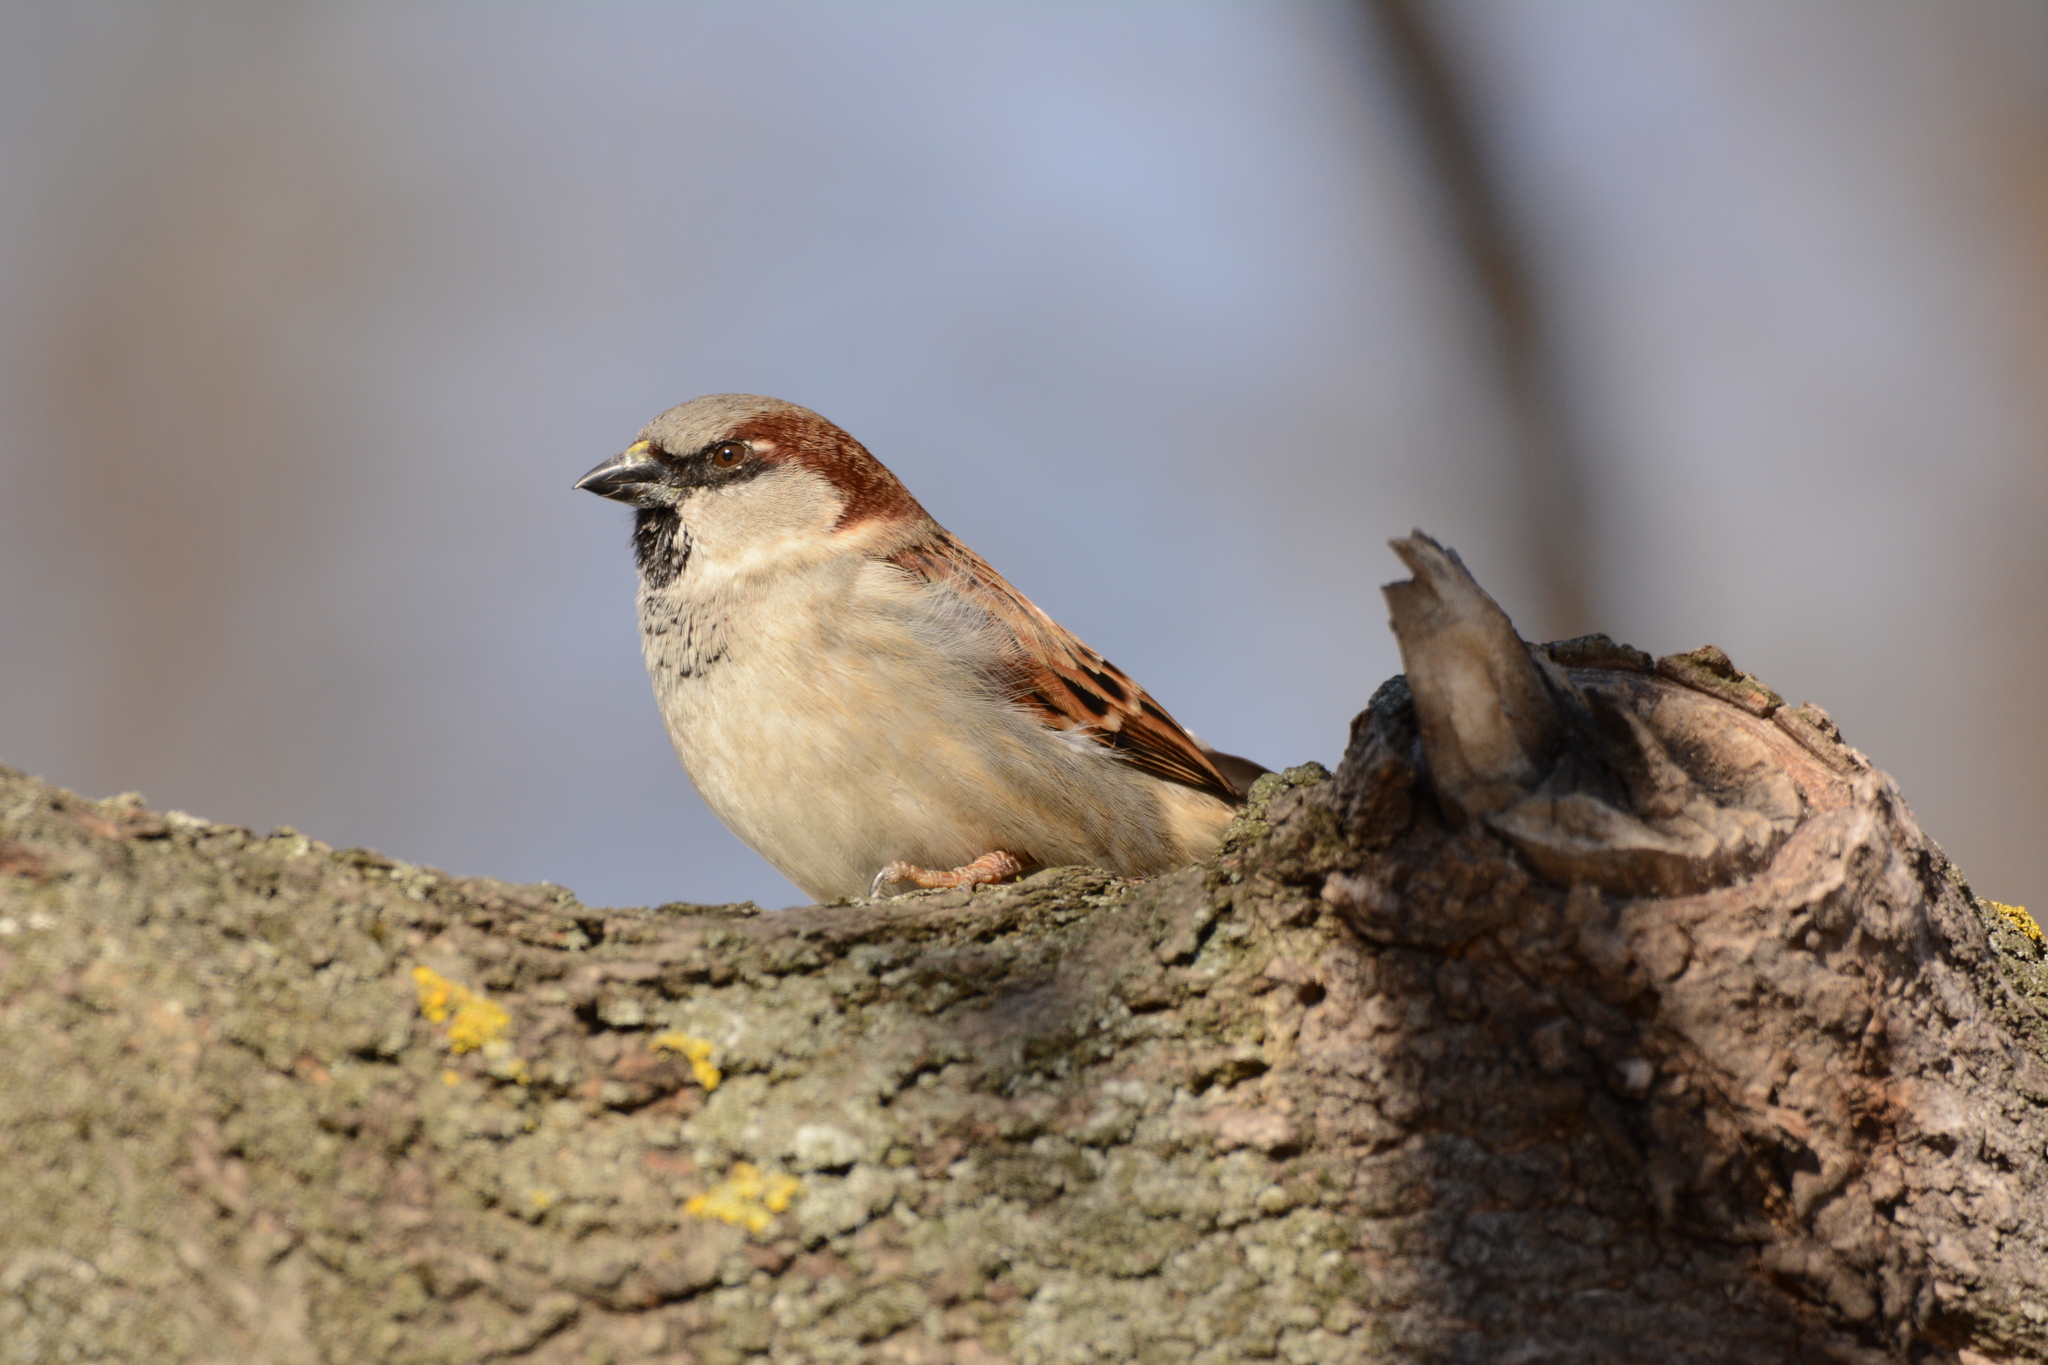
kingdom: Animalia
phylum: Chordata
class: Aves
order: Passeriformes
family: Passeridae
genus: Passer
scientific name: Passer domesticus
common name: House sparrow
